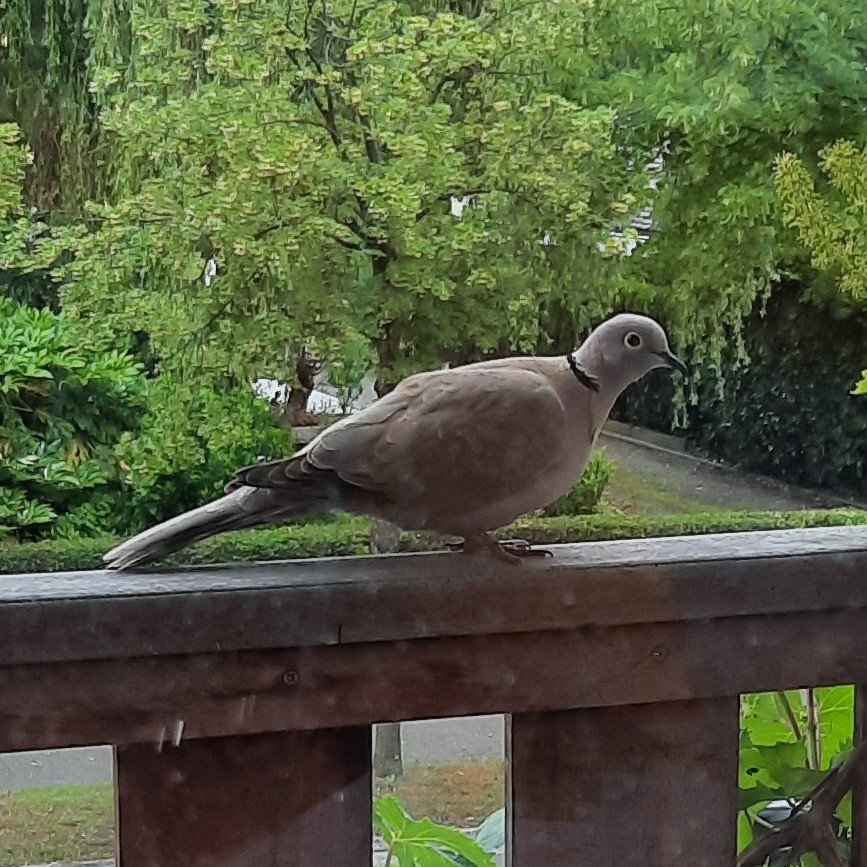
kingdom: Animalia
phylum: Chordata
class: Aves
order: Columbiformes
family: Columbidae
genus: Streptopelia
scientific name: Streptopelia decaocto
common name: Eurasian collared dove
